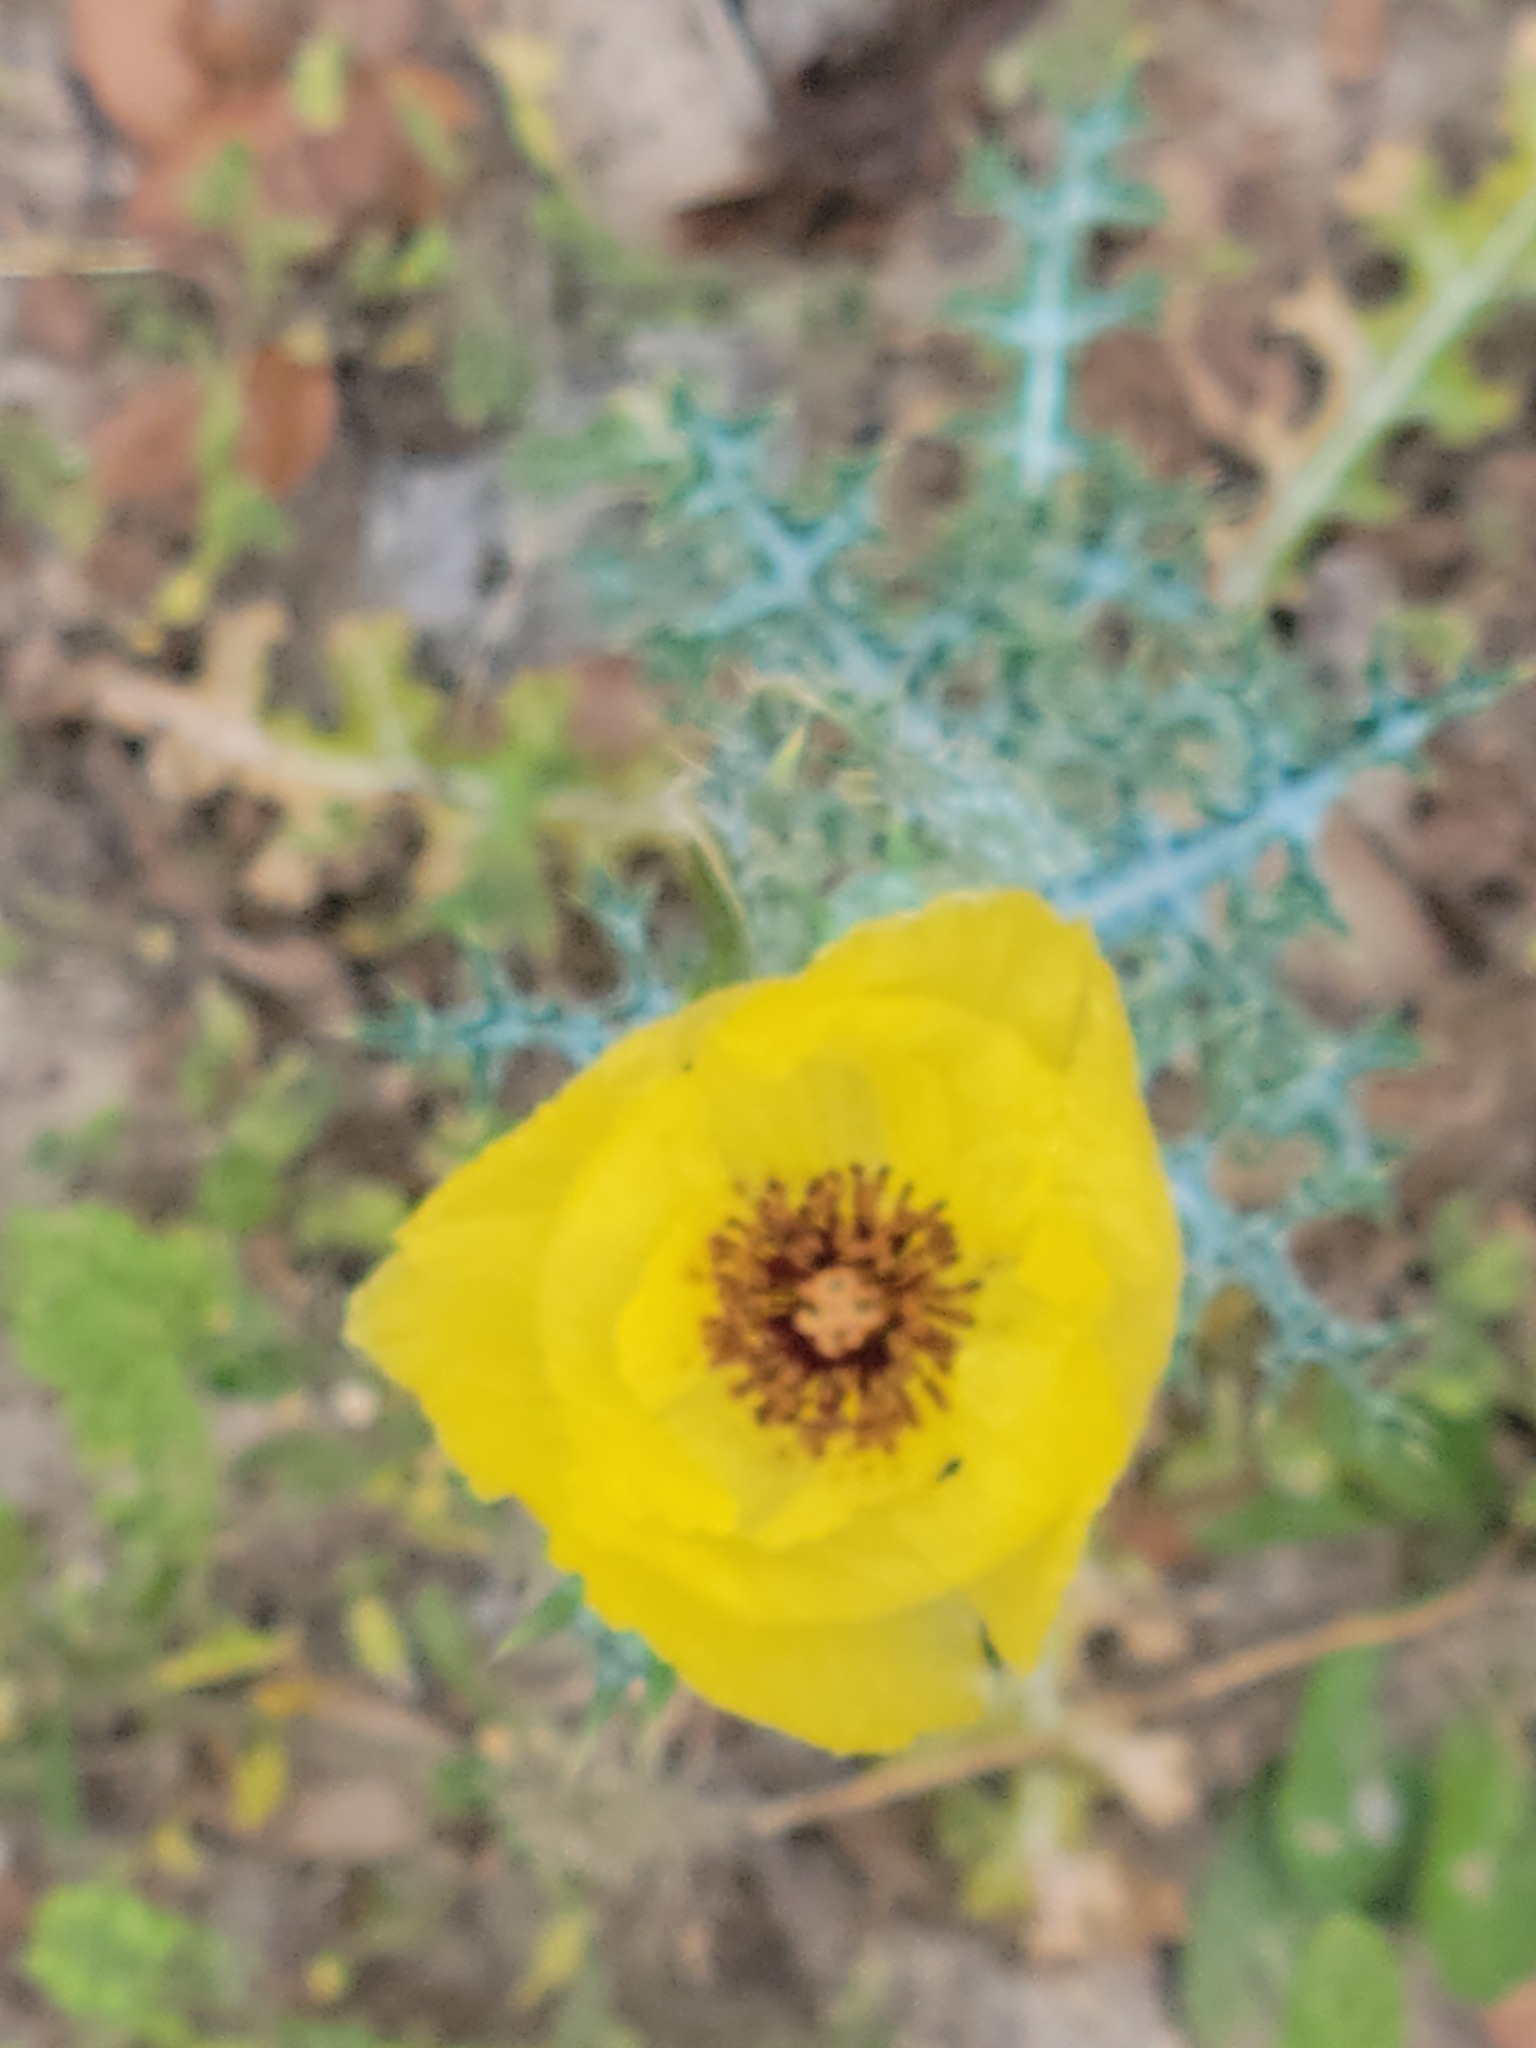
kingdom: Plantae
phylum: Tracheophyta
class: Magnoliopsida
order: Ranunculales
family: Papaveraceae
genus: Argemone
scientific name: Argemone aenea
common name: Golden prickly-poppy
